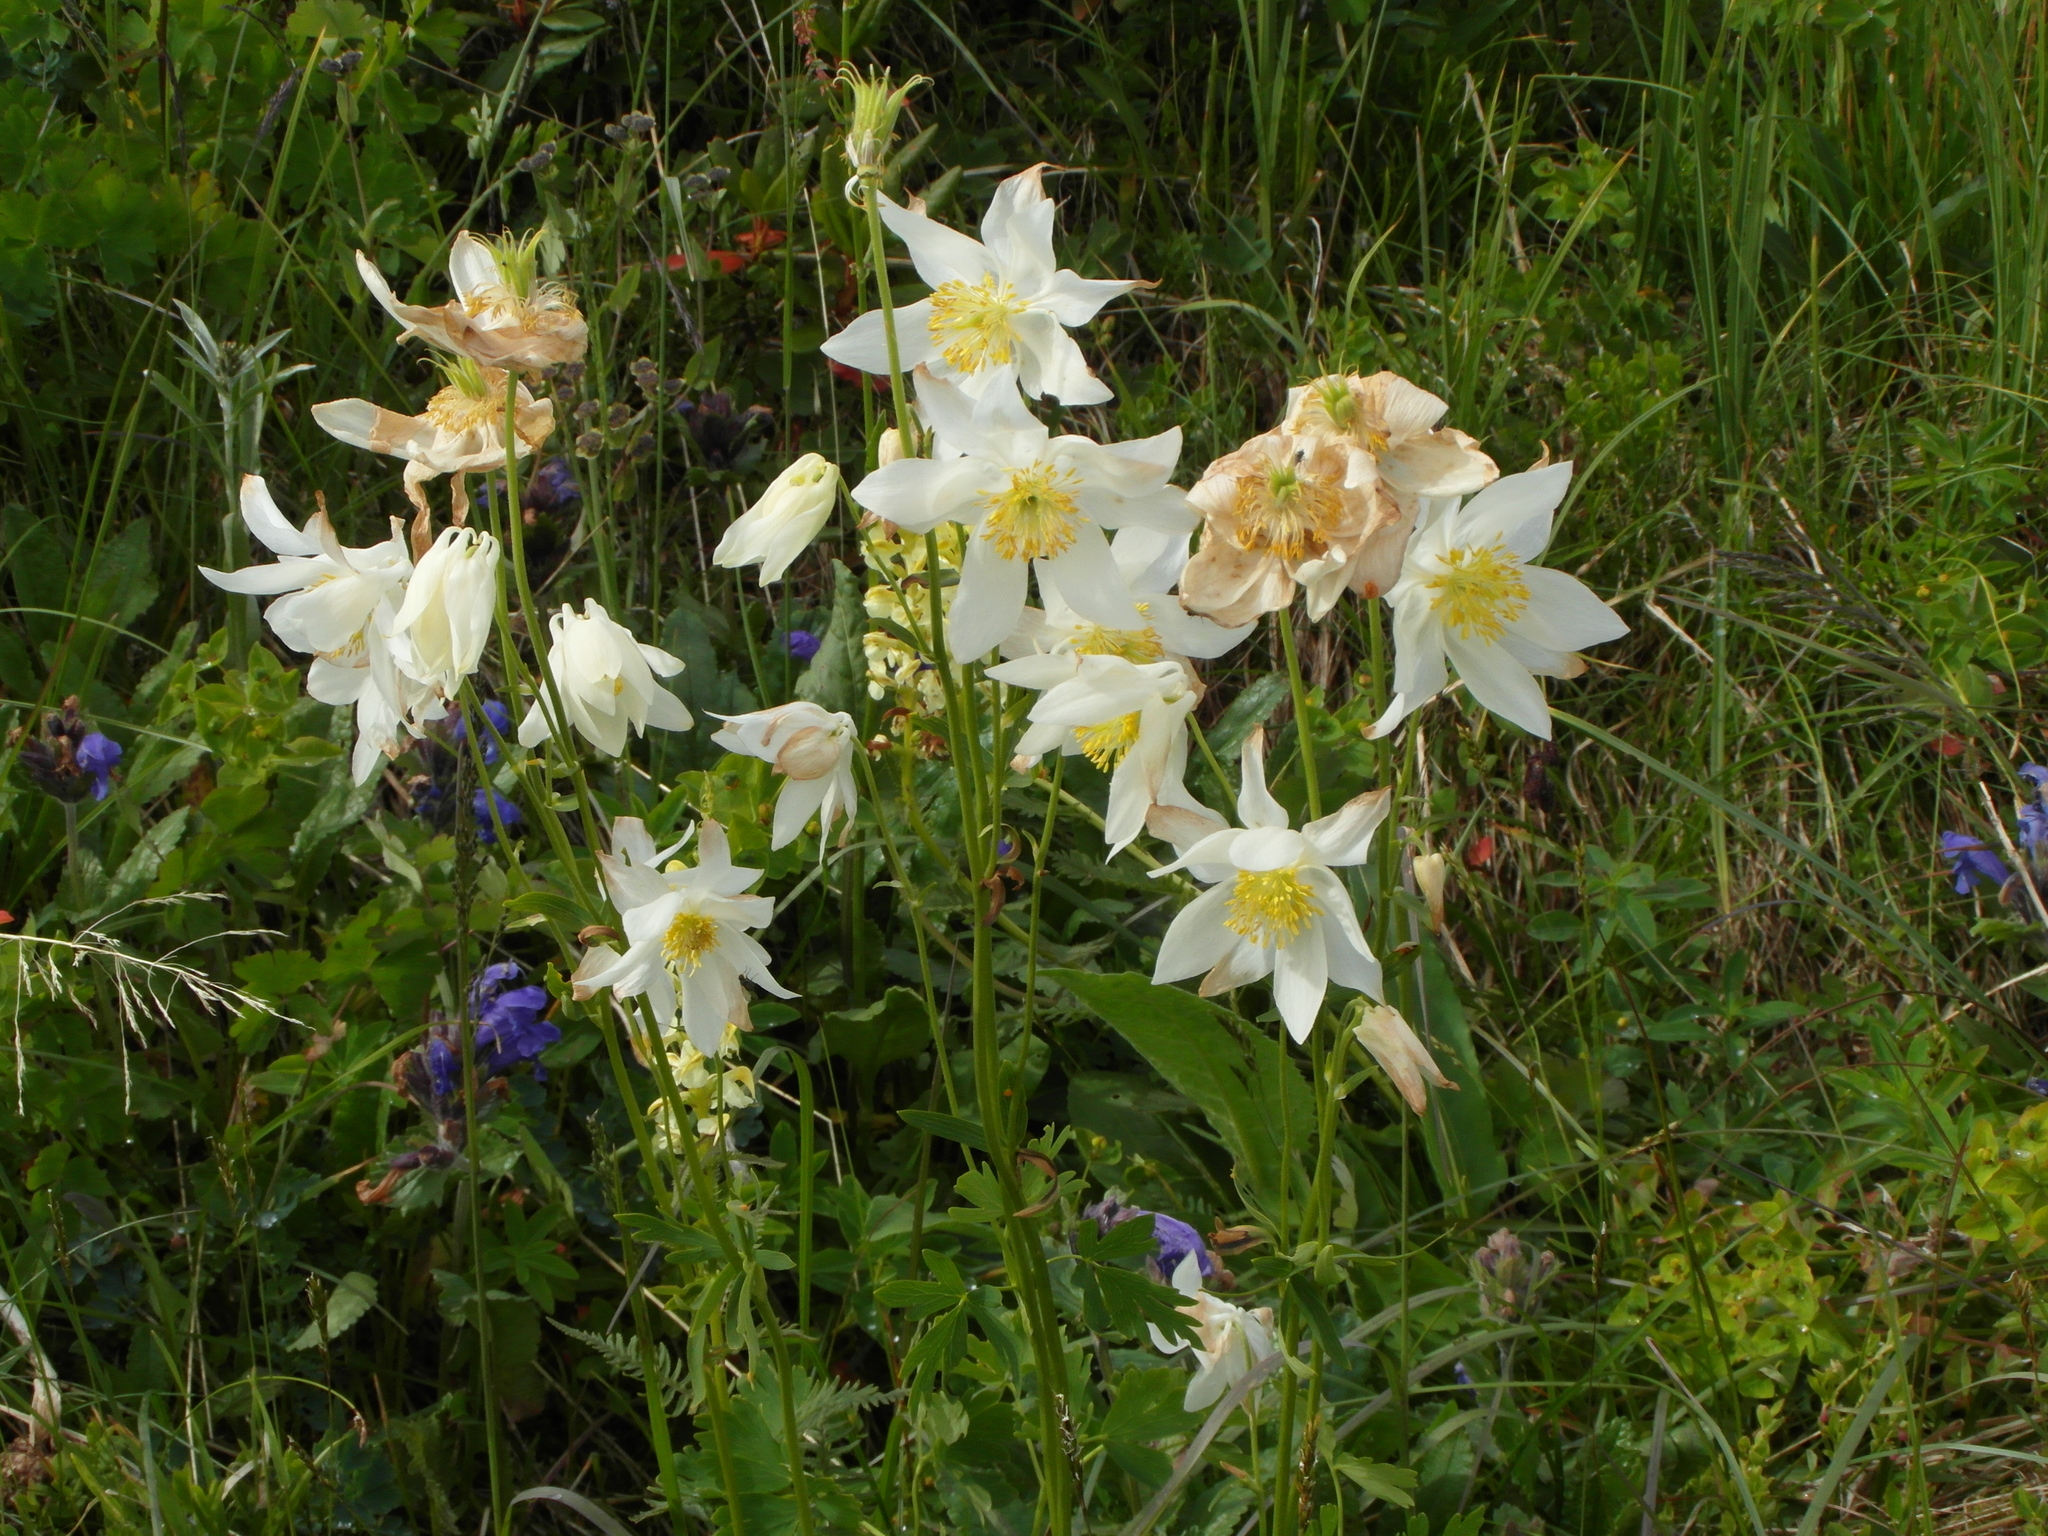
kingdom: Plantae
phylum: Tracheophyta
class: Magnoliopsida
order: Ranunculales
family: Ranunculaceae
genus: Aquilegia
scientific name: Aquilegia glandulosa
